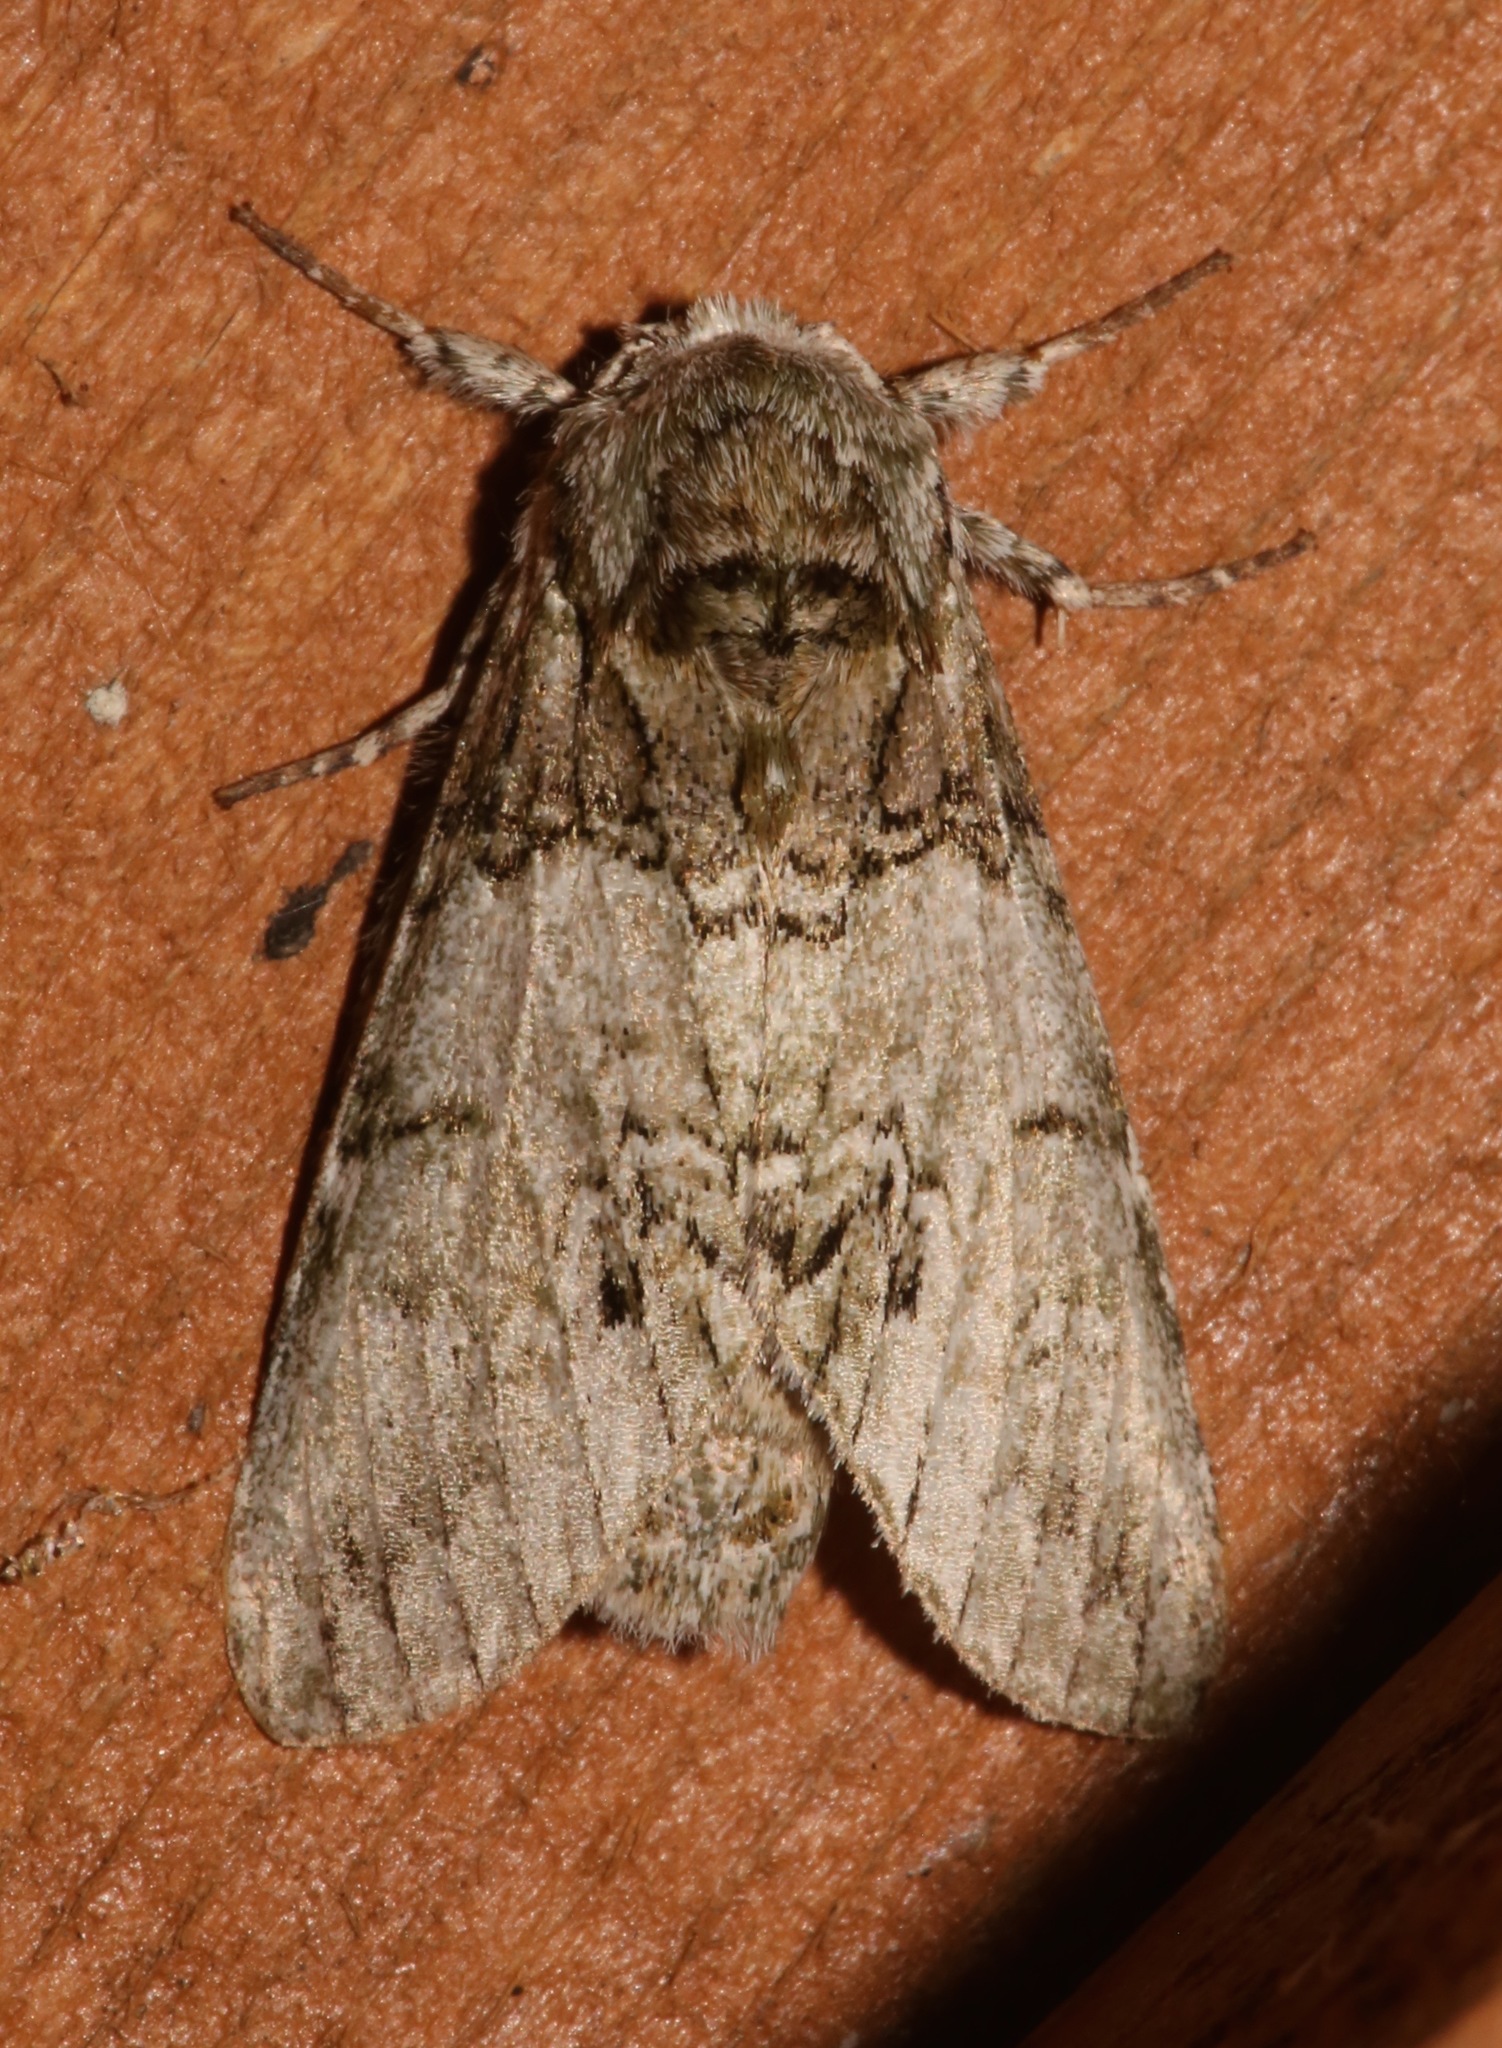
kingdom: Animalia
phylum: Arthropoda
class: Insecta
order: Lepidoptera
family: Notodontidae
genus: Macrurocampa
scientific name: Macrurocampa marthesia
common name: Mottled prominent
